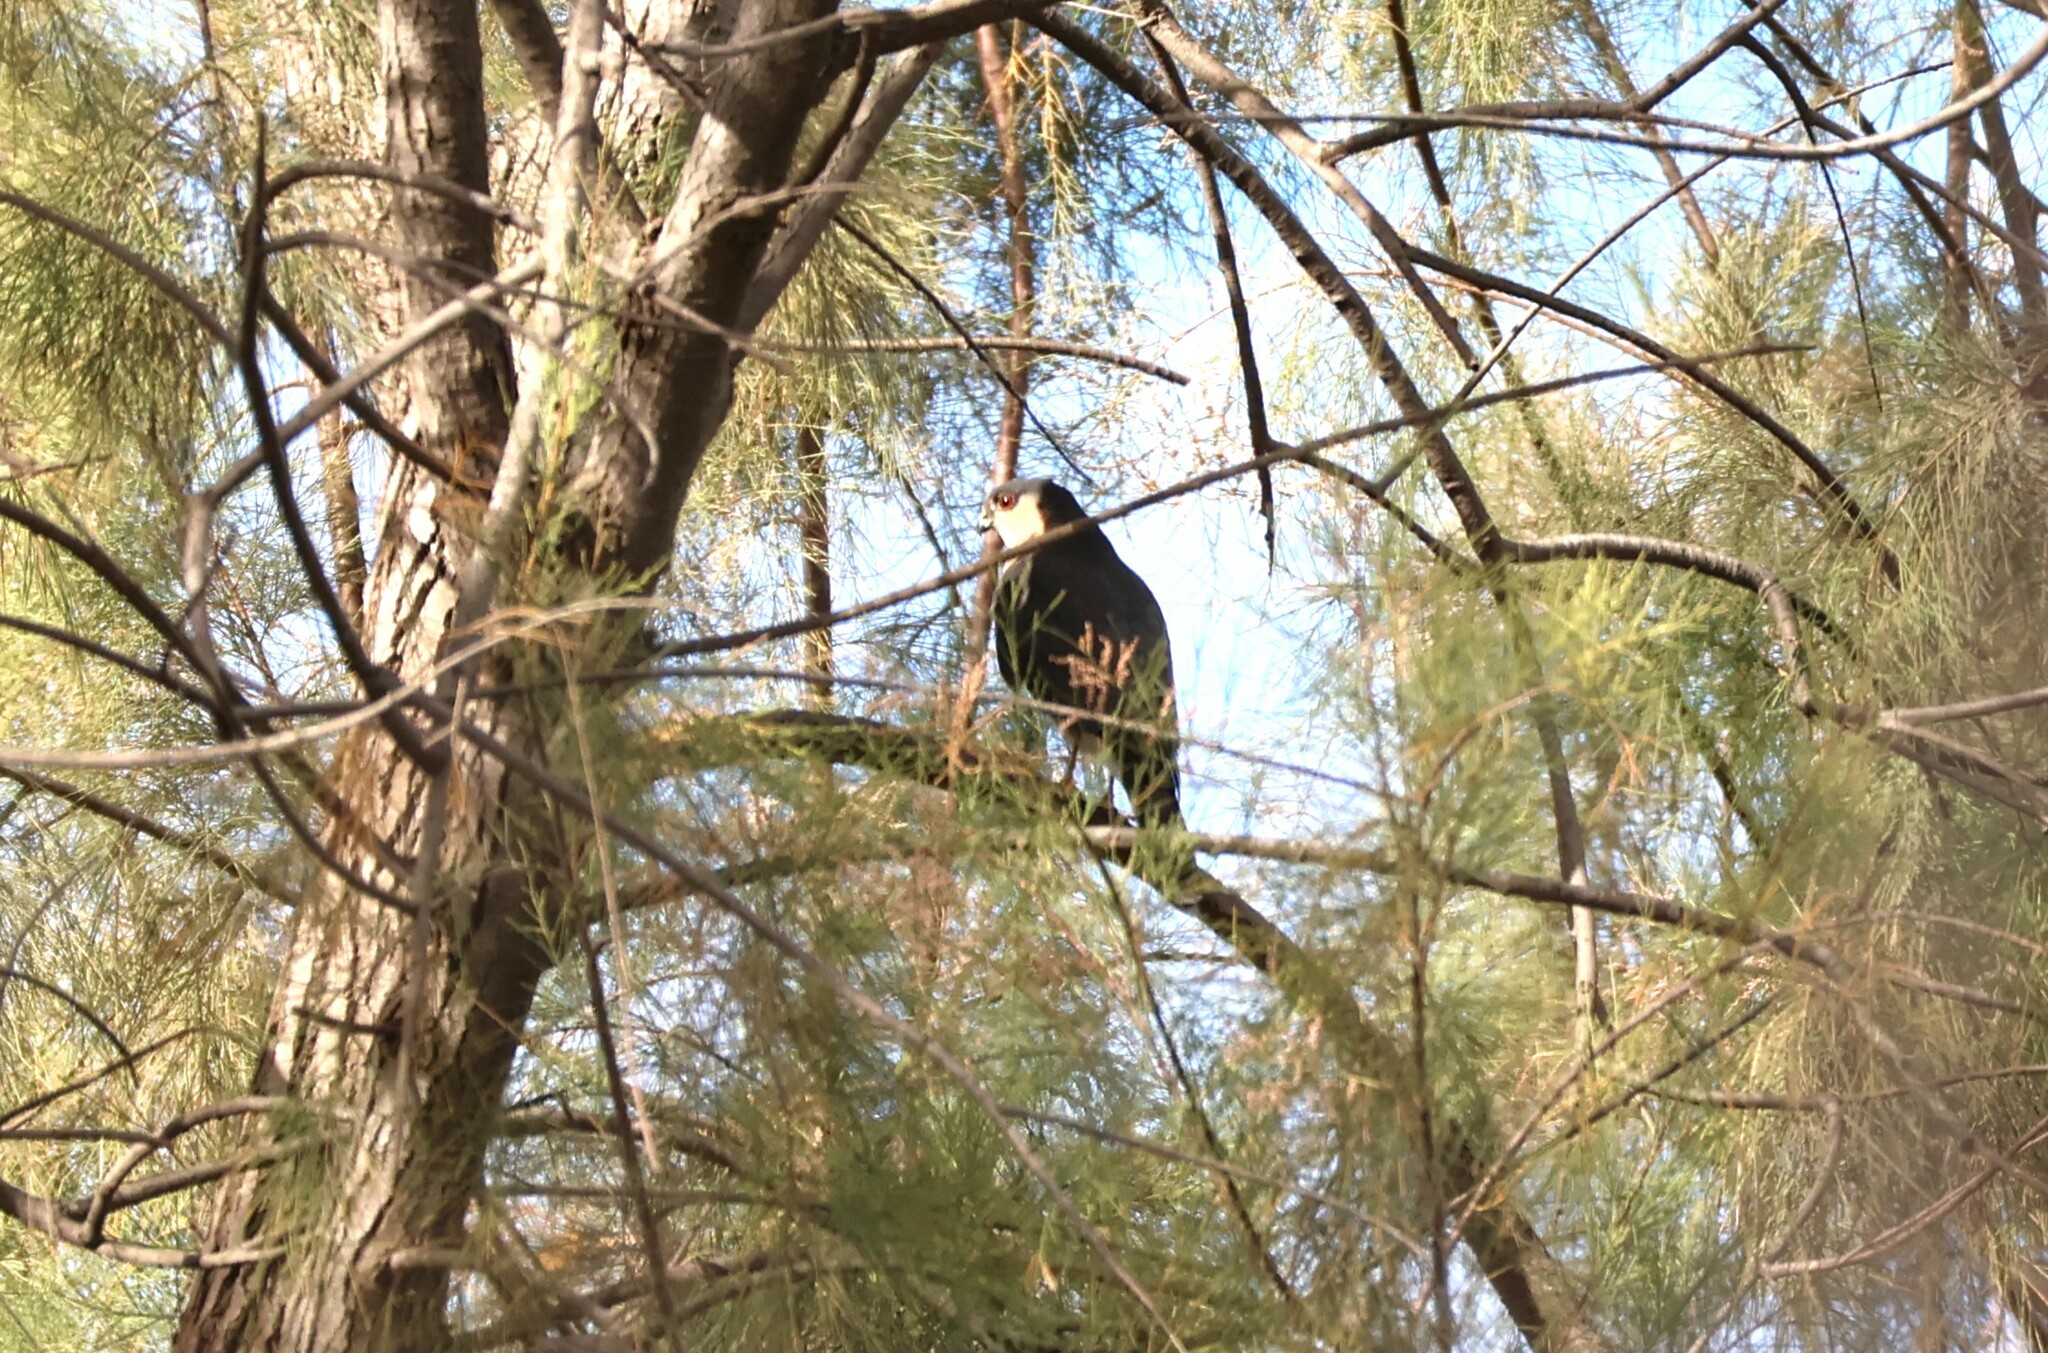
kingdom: Animalia
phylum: Chordata
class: Aves
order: Accipitriformes
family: Accipitridae
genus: Accipiter
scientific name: Accipiter striatus
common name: Sharp-shinned hawk
